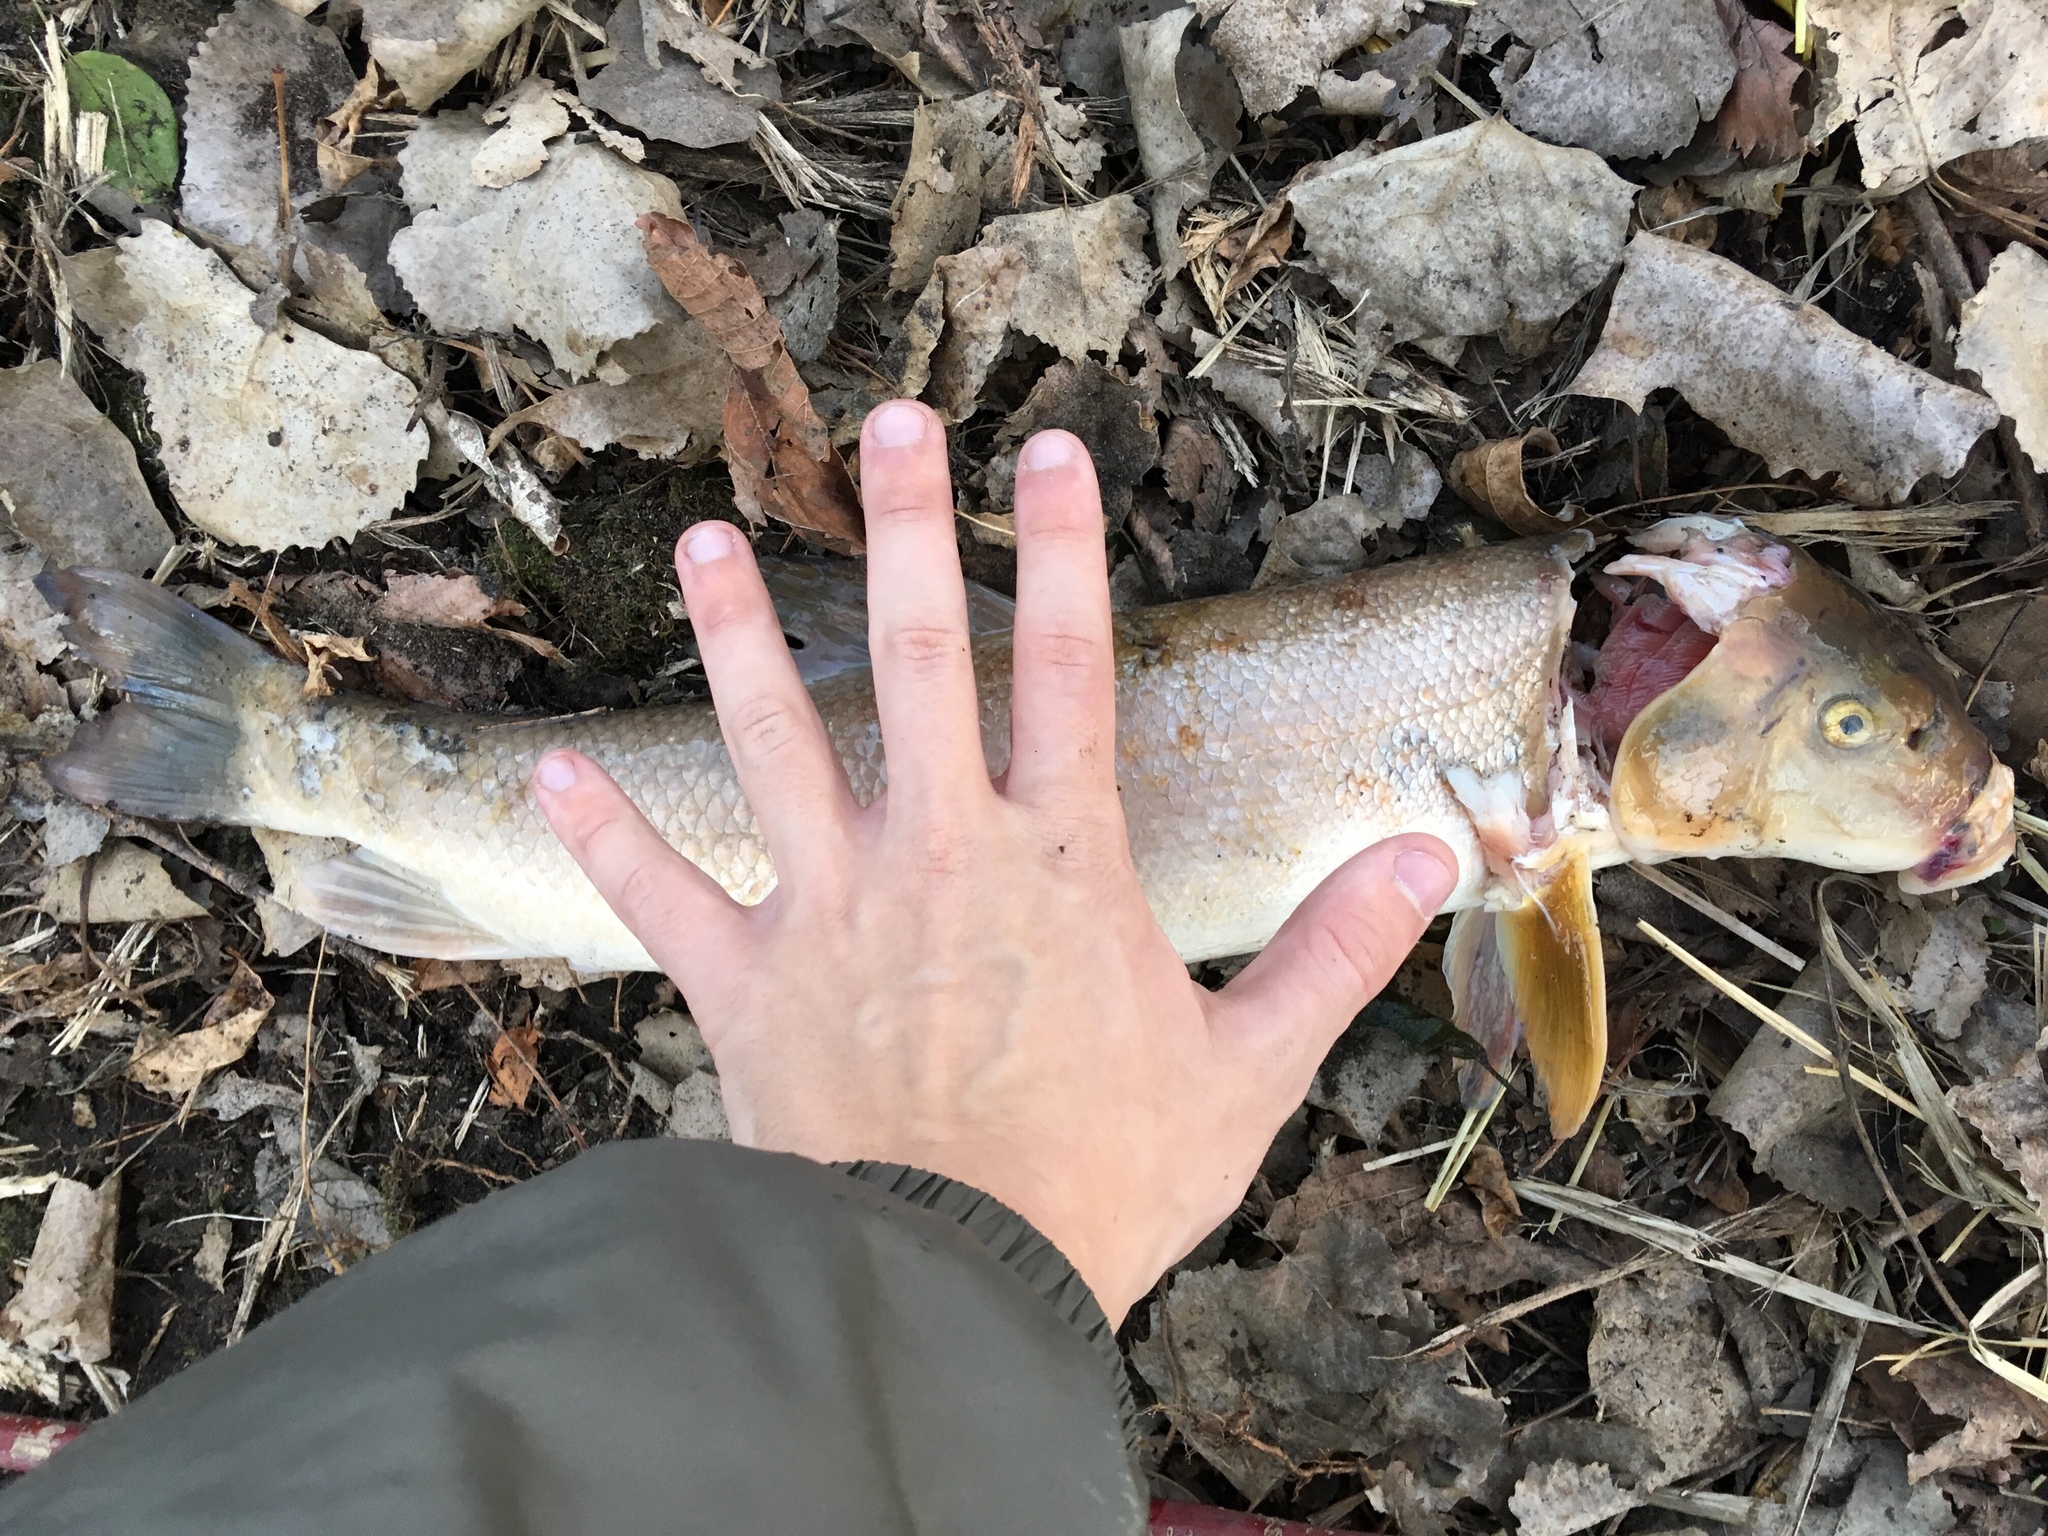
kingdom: Animalia
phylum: Chordata
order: Cypriniformes
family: Catostomidae
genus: Catostomus
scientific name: Catostomus commersonii
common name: White sucker
